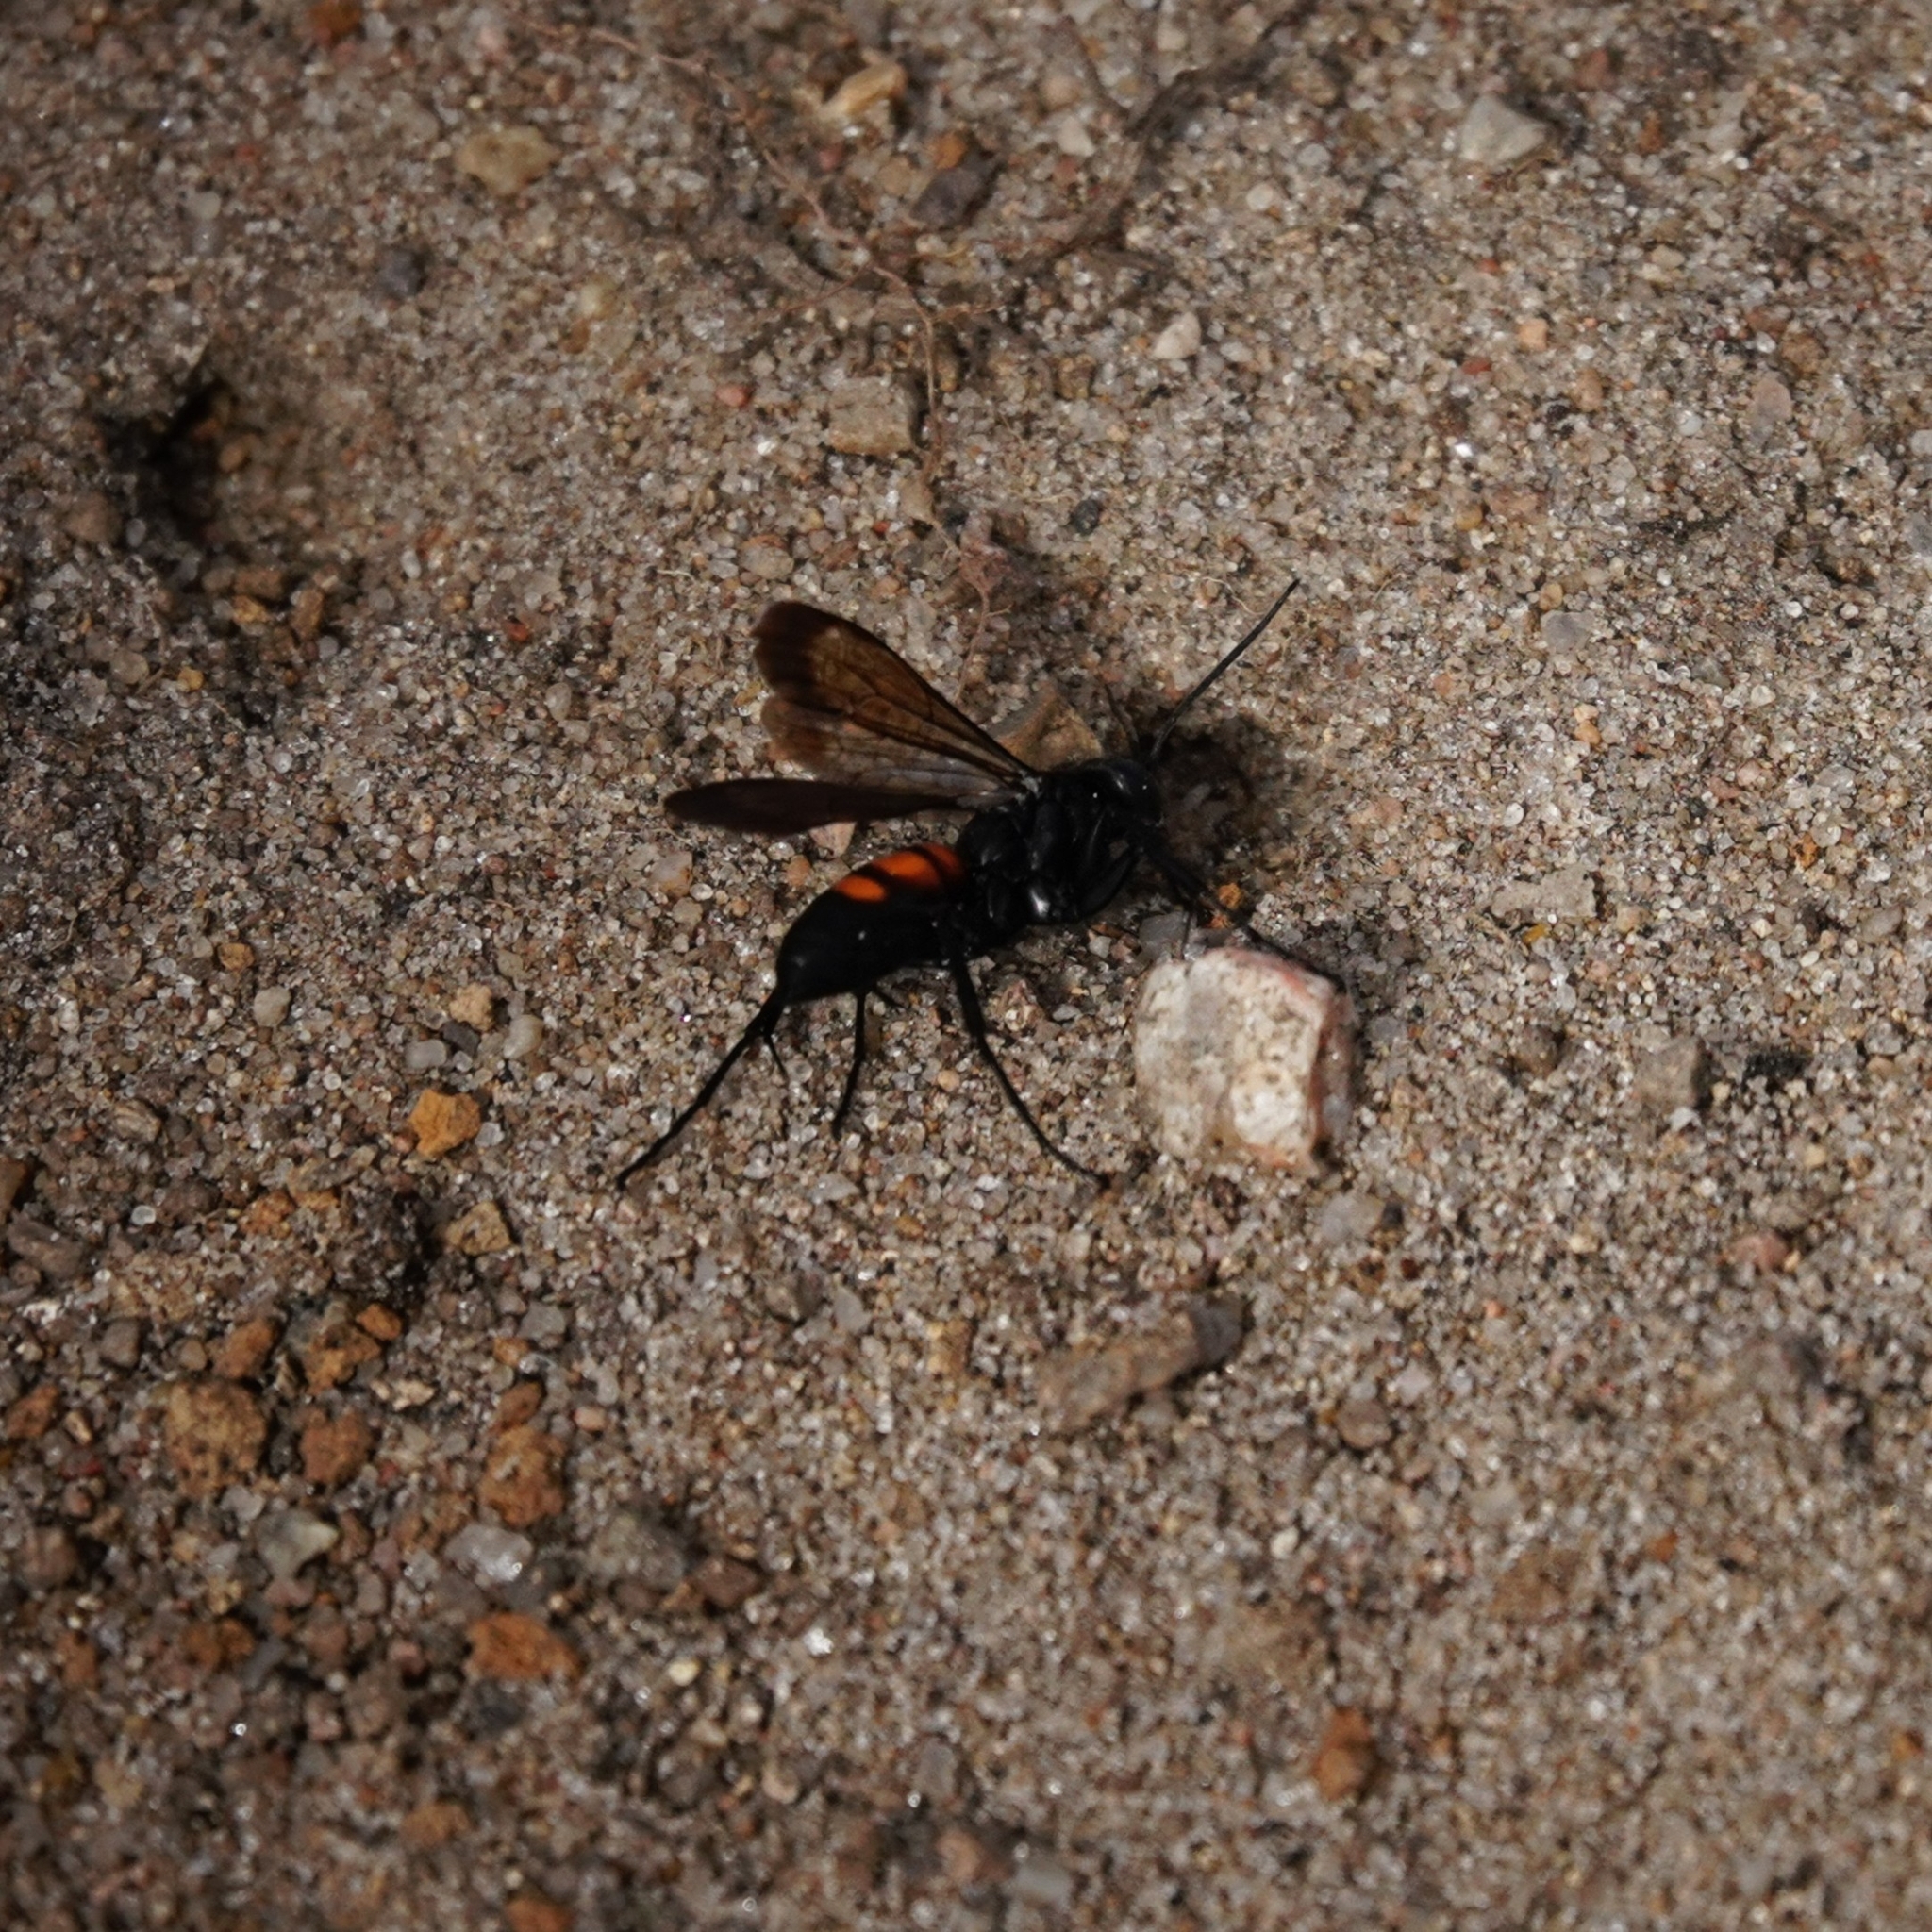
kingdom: Animalia
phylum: Arthropoda
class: Insecta
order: Hymenoptera
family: Pompilidae
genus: Anoplius
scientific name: Anoplius viaticus
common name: Black banded spider wasp
